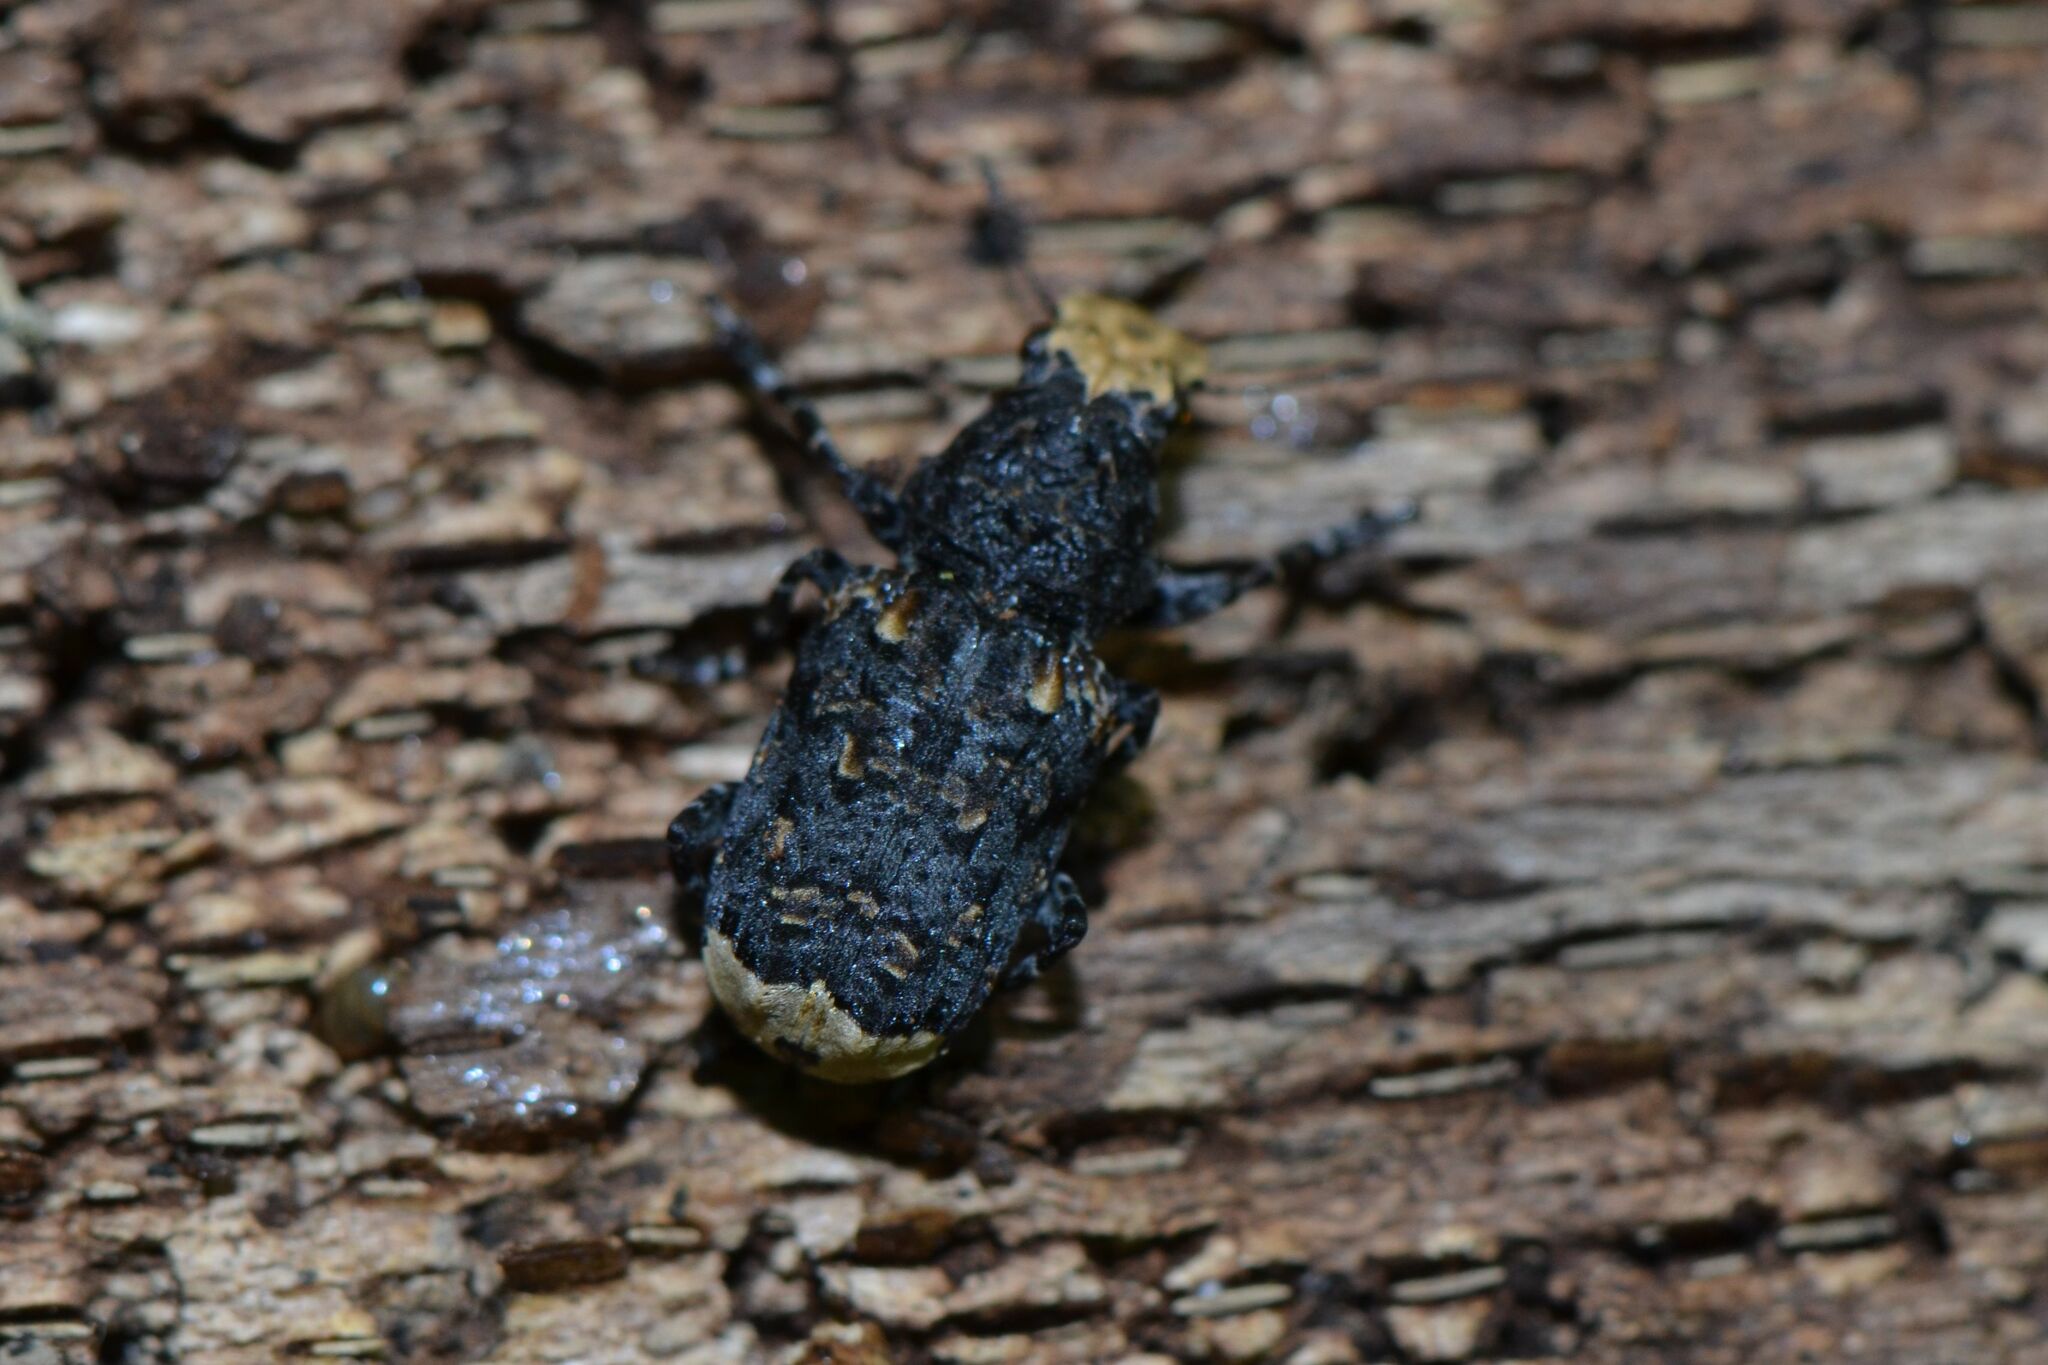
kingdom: Animalia
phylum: Arthropoda
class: Insecta
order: Coleoptera
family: Anthribidae
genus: Platyrhinus
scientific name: Platyrhinus resinosus
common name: Cramp-ball fungus weevil
